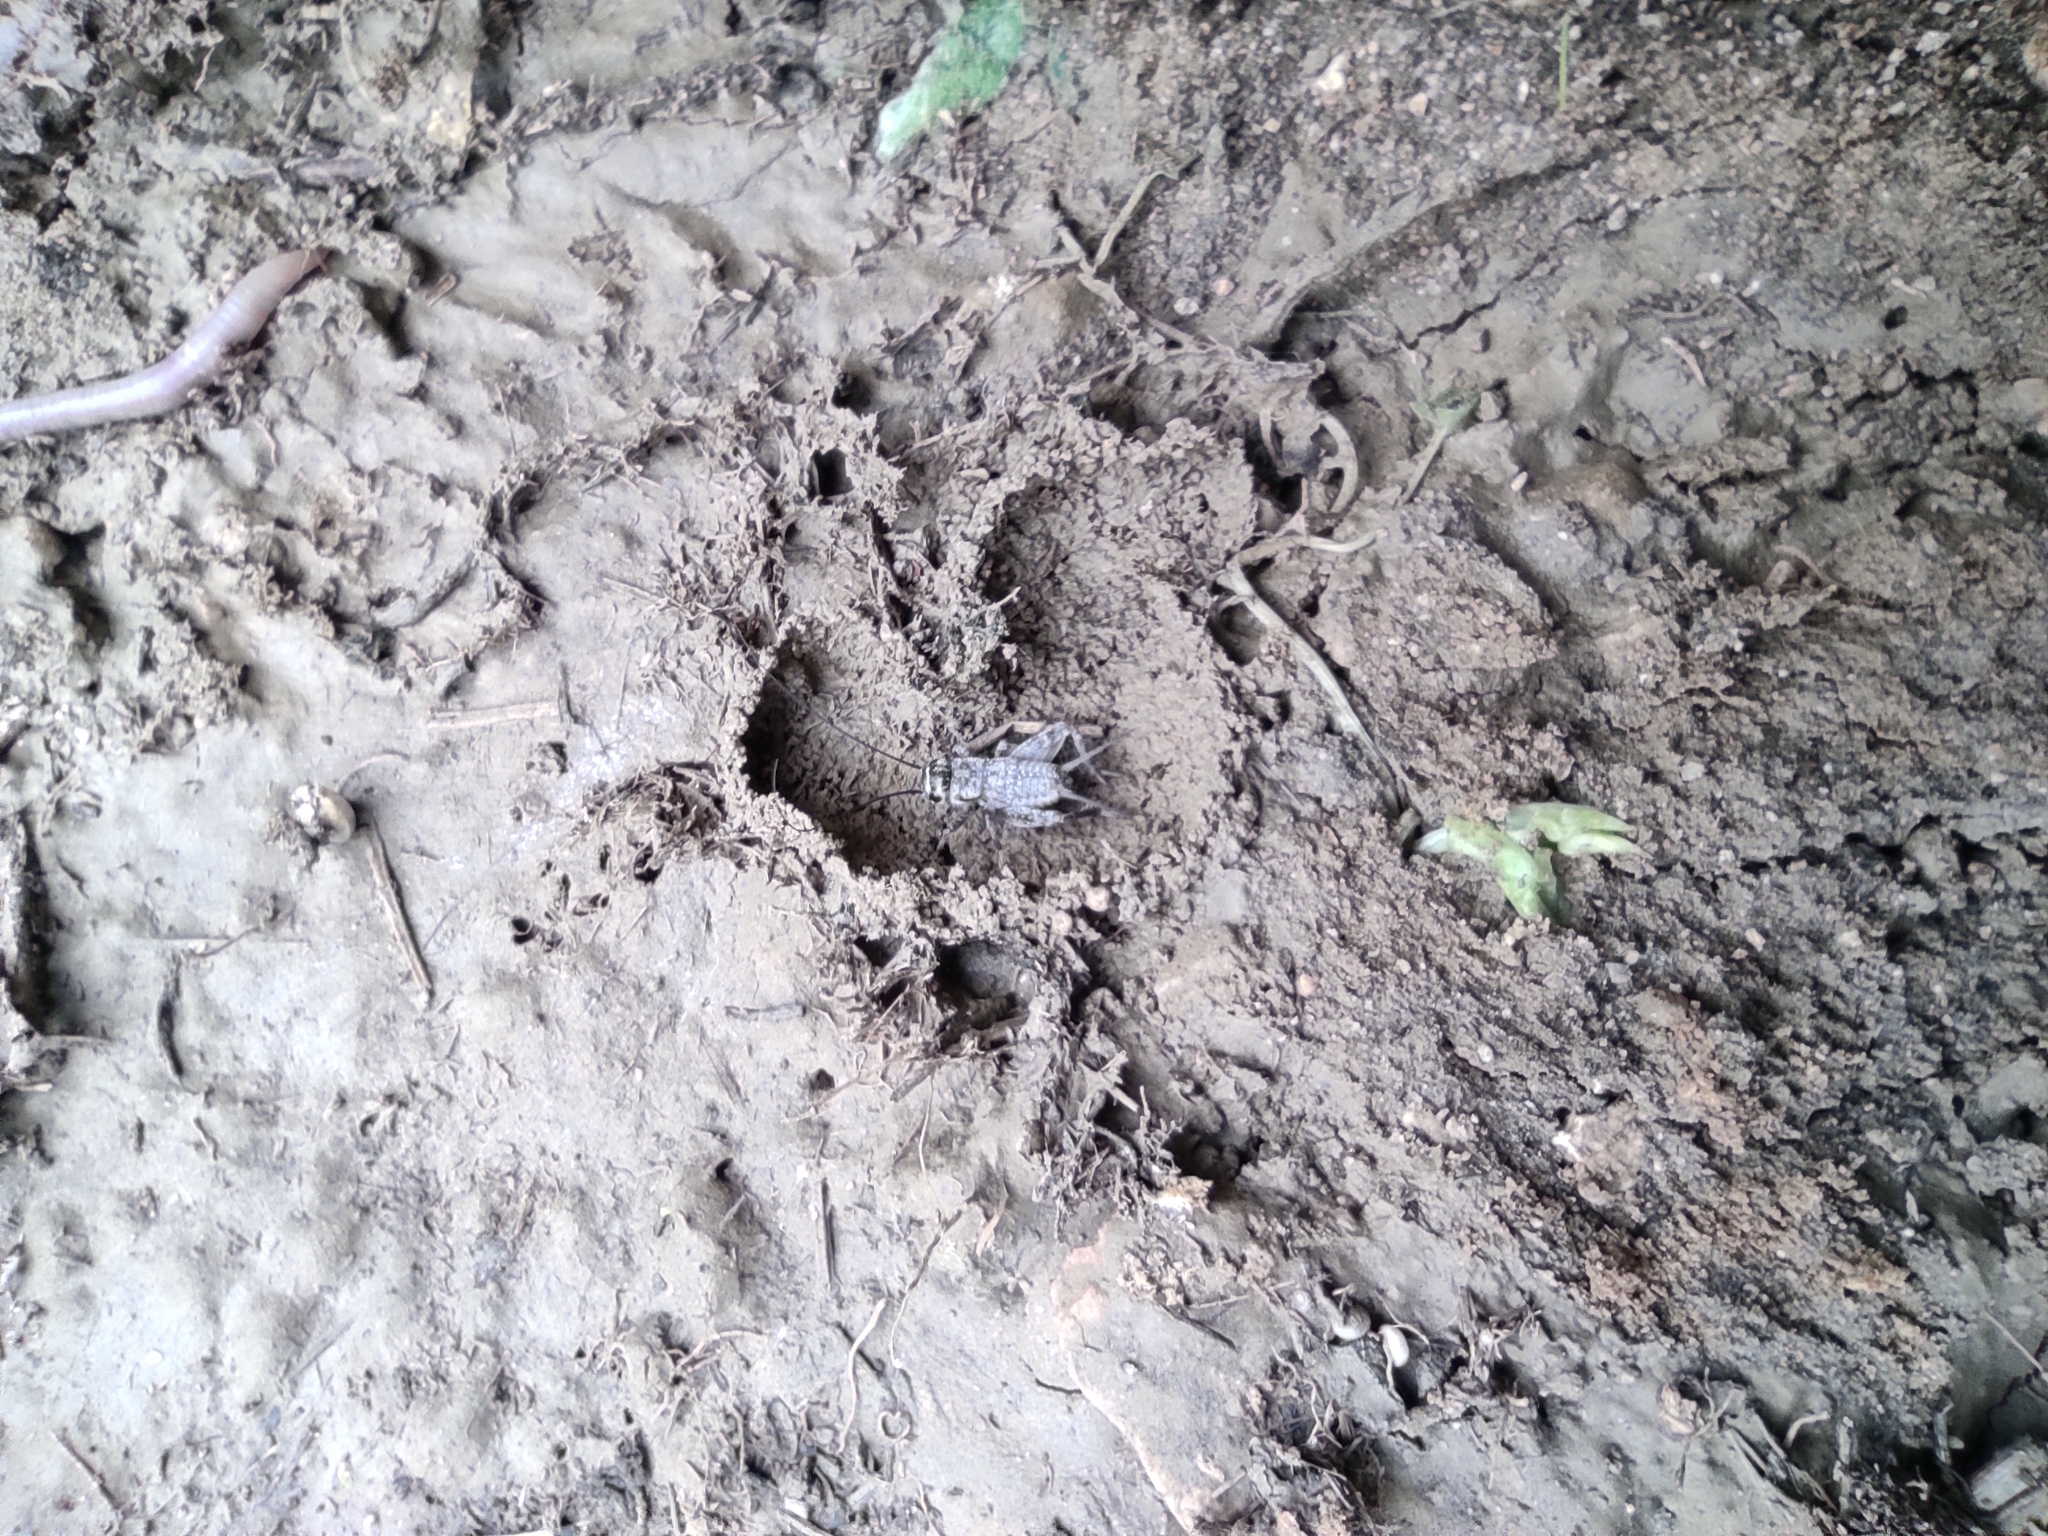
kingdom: Animalia
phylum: Arthropoda
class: Insecta
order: Orthoptera
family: Gryllidae
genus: Eumodicogryllus
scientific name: Eumodicogryllus bordigalensis
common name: Bordeaux cricket
